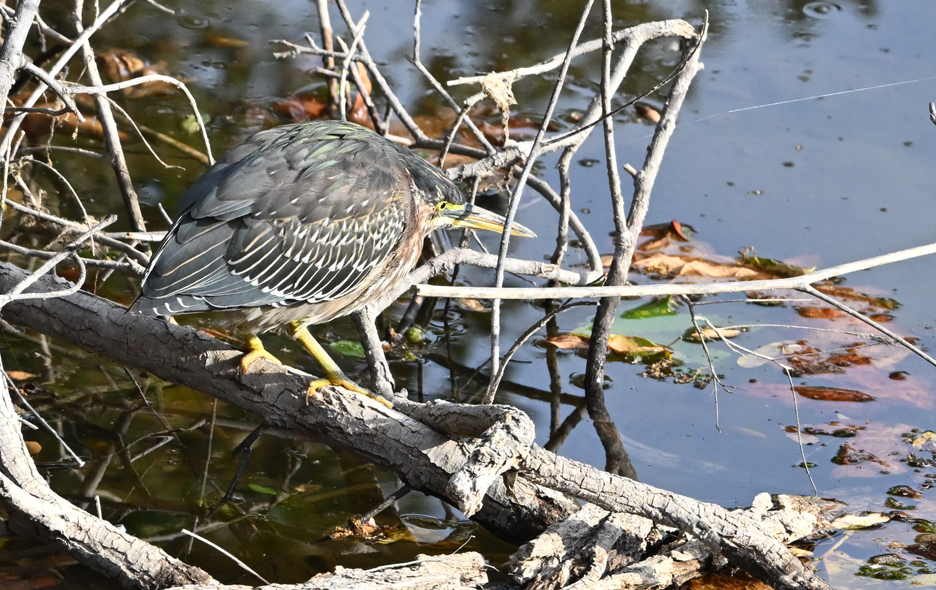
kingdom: Animalia
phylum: Chordata
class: Aves
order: Pelecaniformes
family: Ardeidae
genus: Butorides
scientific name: Butorides virescens
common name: Green heron
